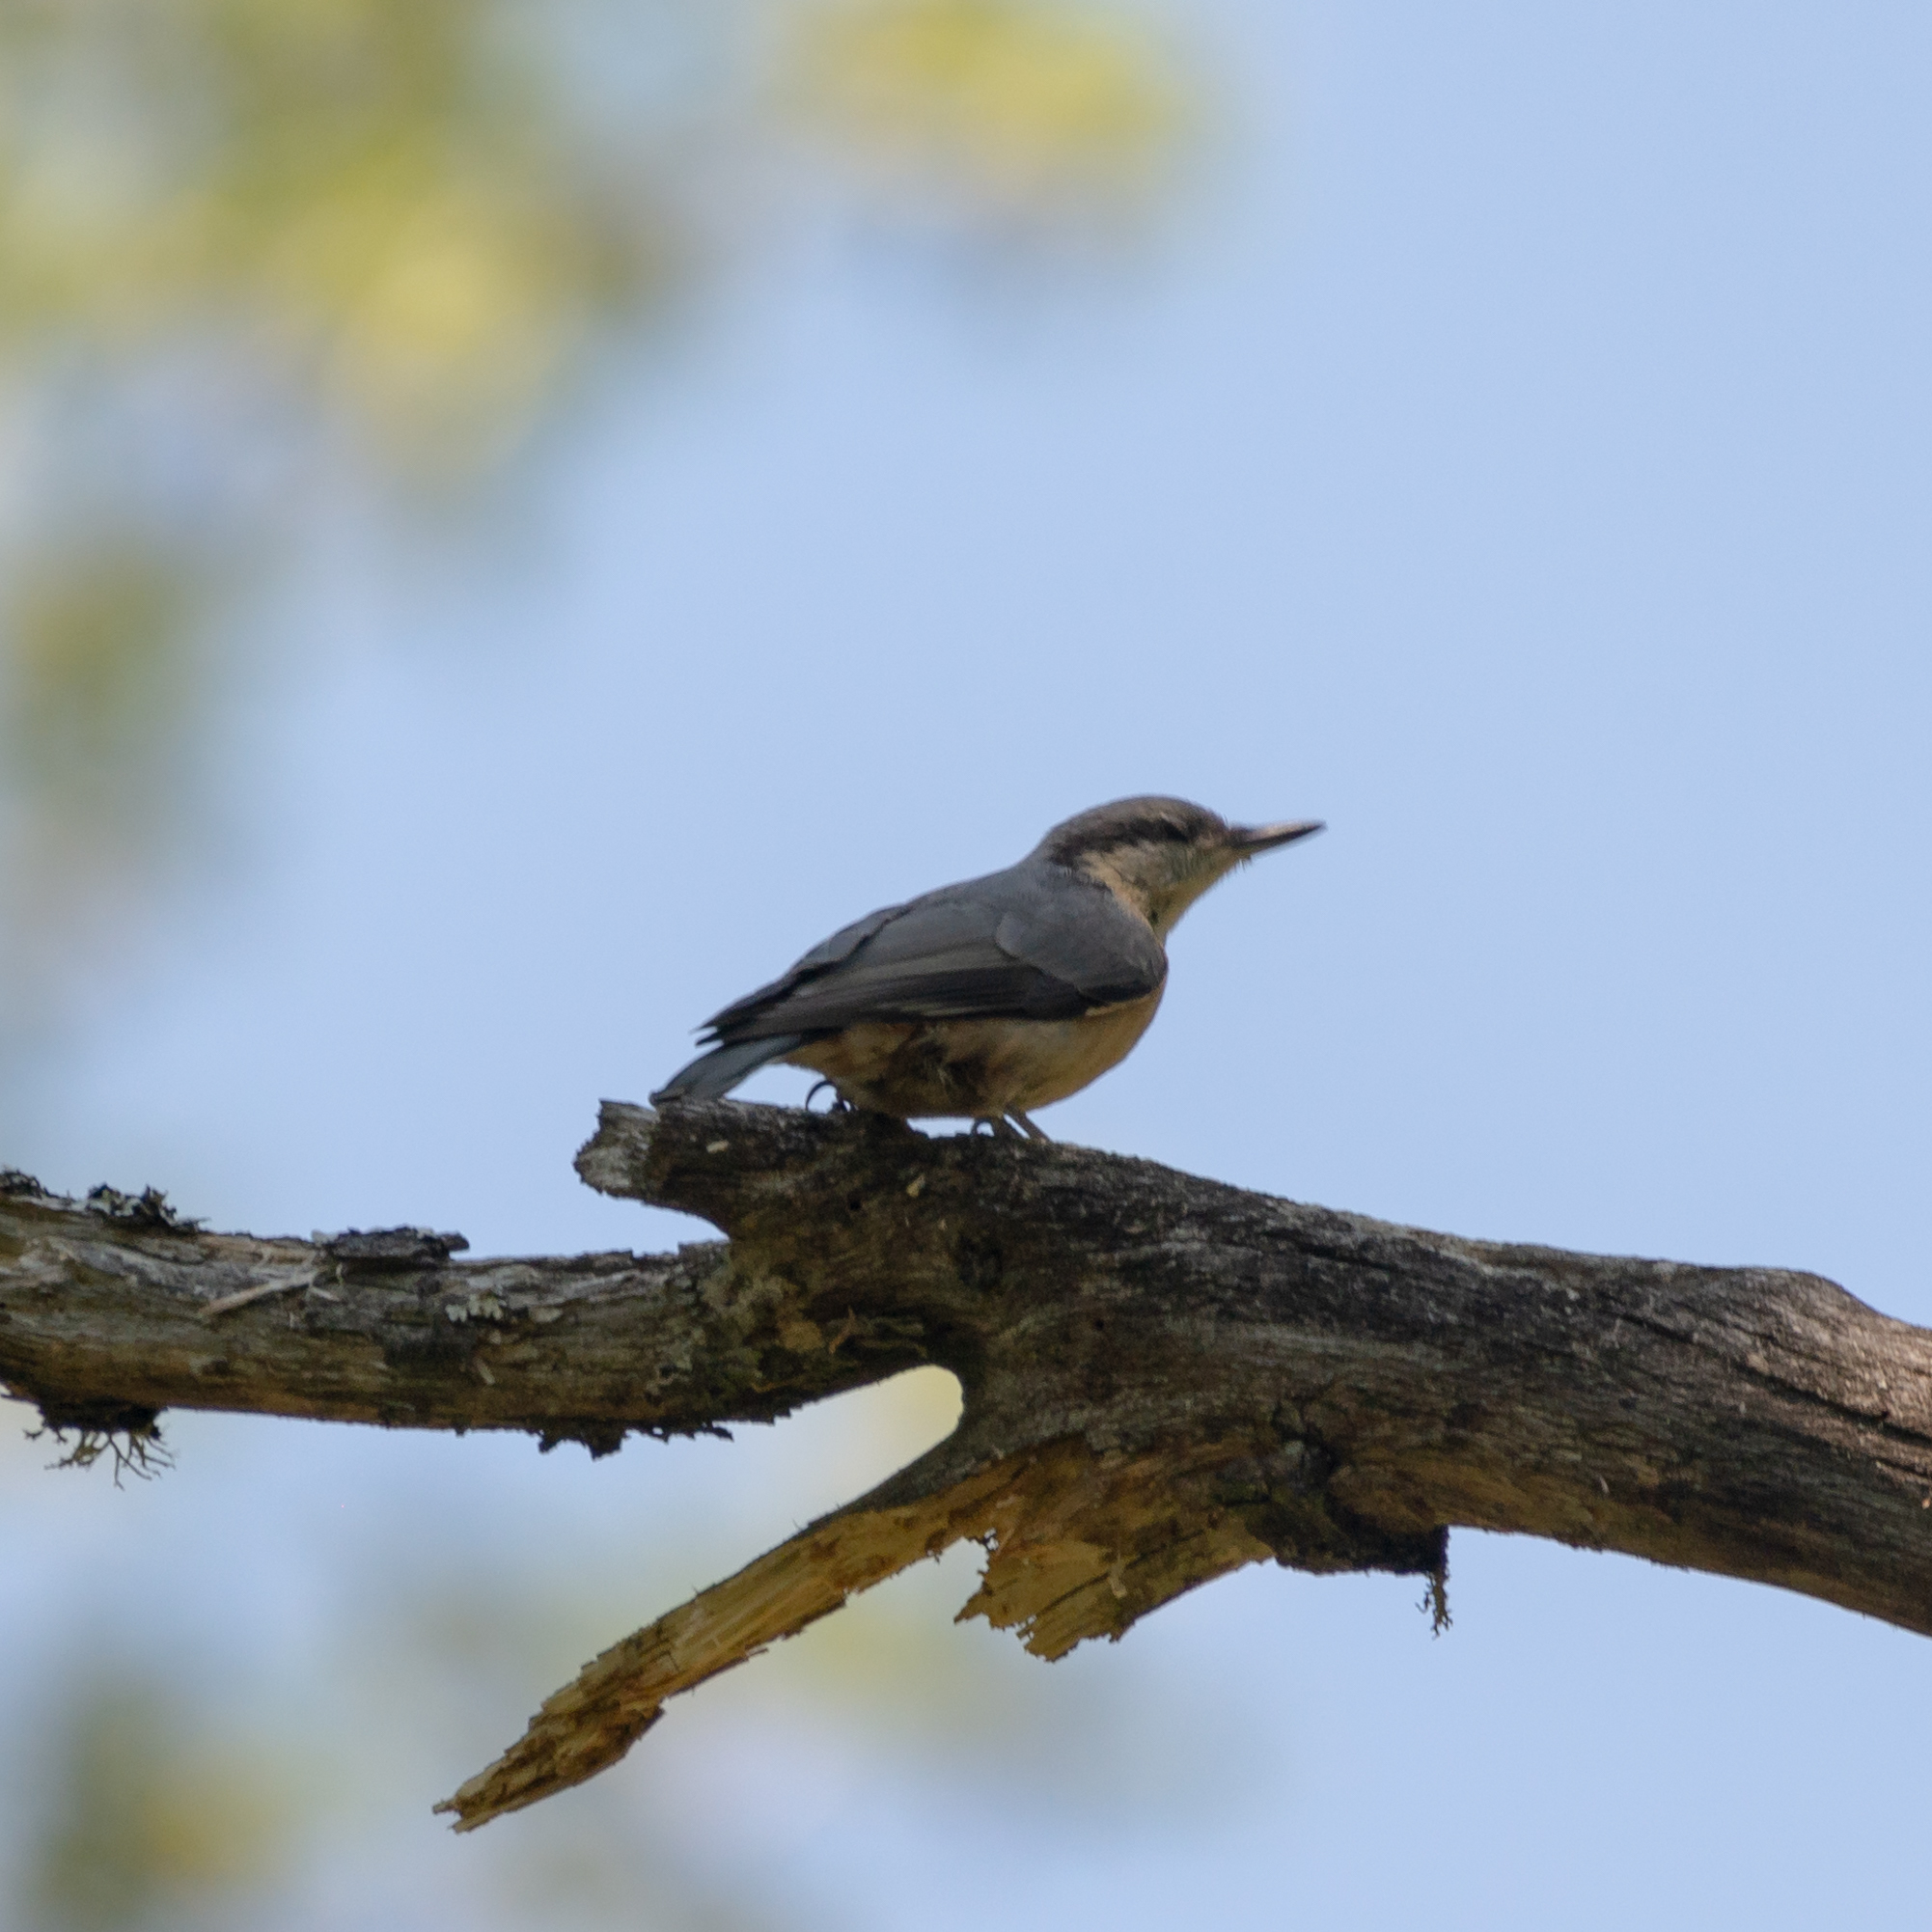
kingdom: Animalia
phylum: Chordata
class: Aves
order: Passeriformes
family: Sittidae
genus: Sitta
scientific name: Sitta europaea
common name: Eurasian nuthatch
